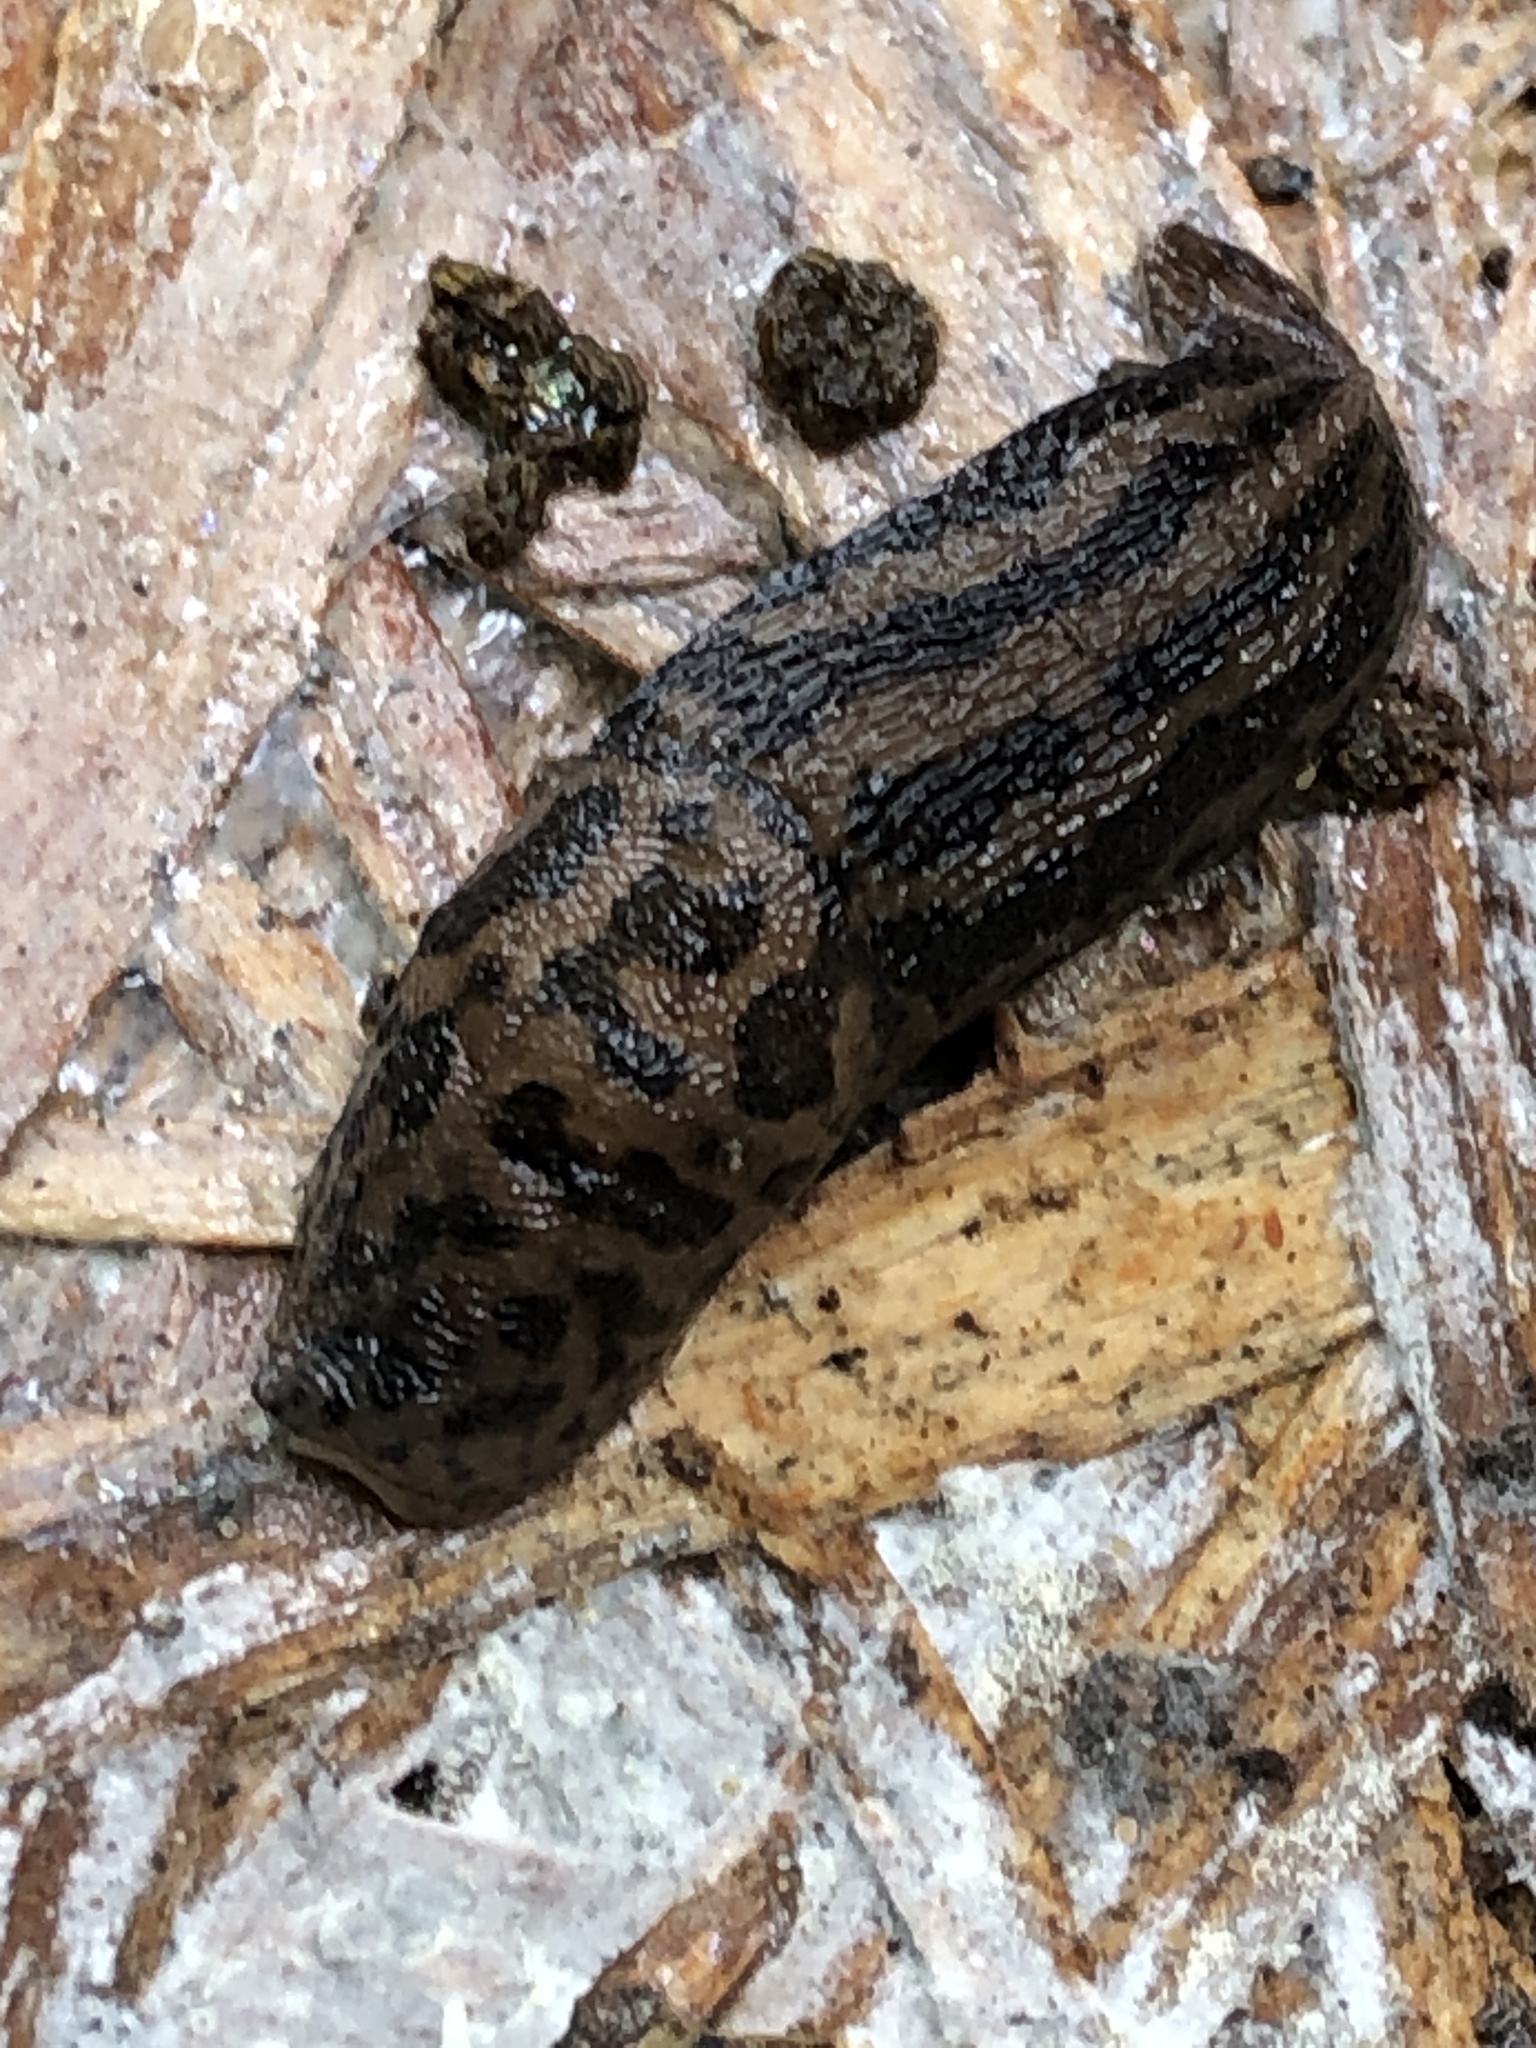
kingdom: Animalia
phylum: Mollusca
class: Gastropoda
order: Stylommatophora
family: Limacidae
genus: Limax
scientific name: Limax maximus
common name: Great grey slug
